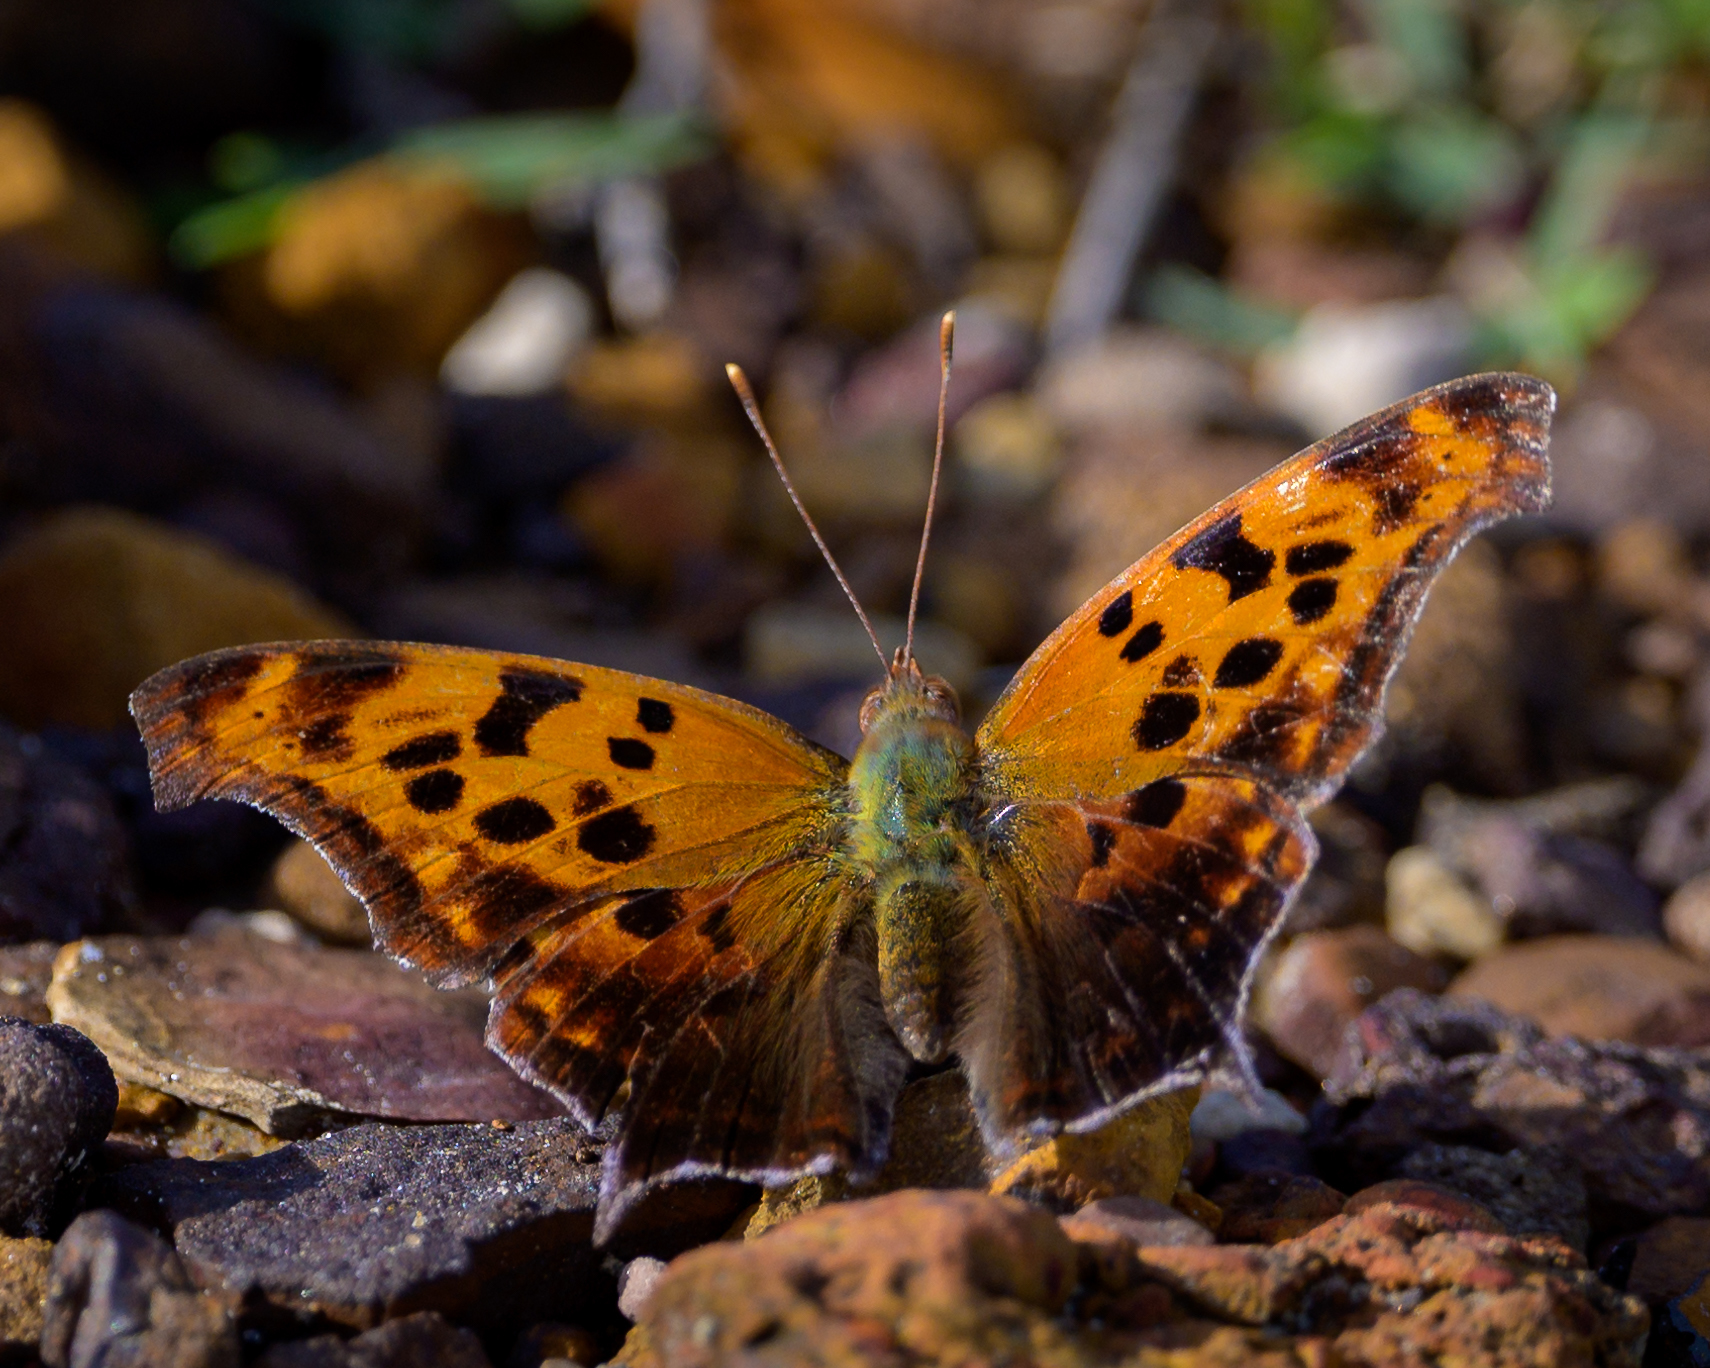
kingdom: Animalia
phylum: Arthropoda
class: Insecta
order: Lepidoptera
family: Nymphalidae
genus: Polygonia
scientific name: Polygonia interrogationis
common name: Question mark
